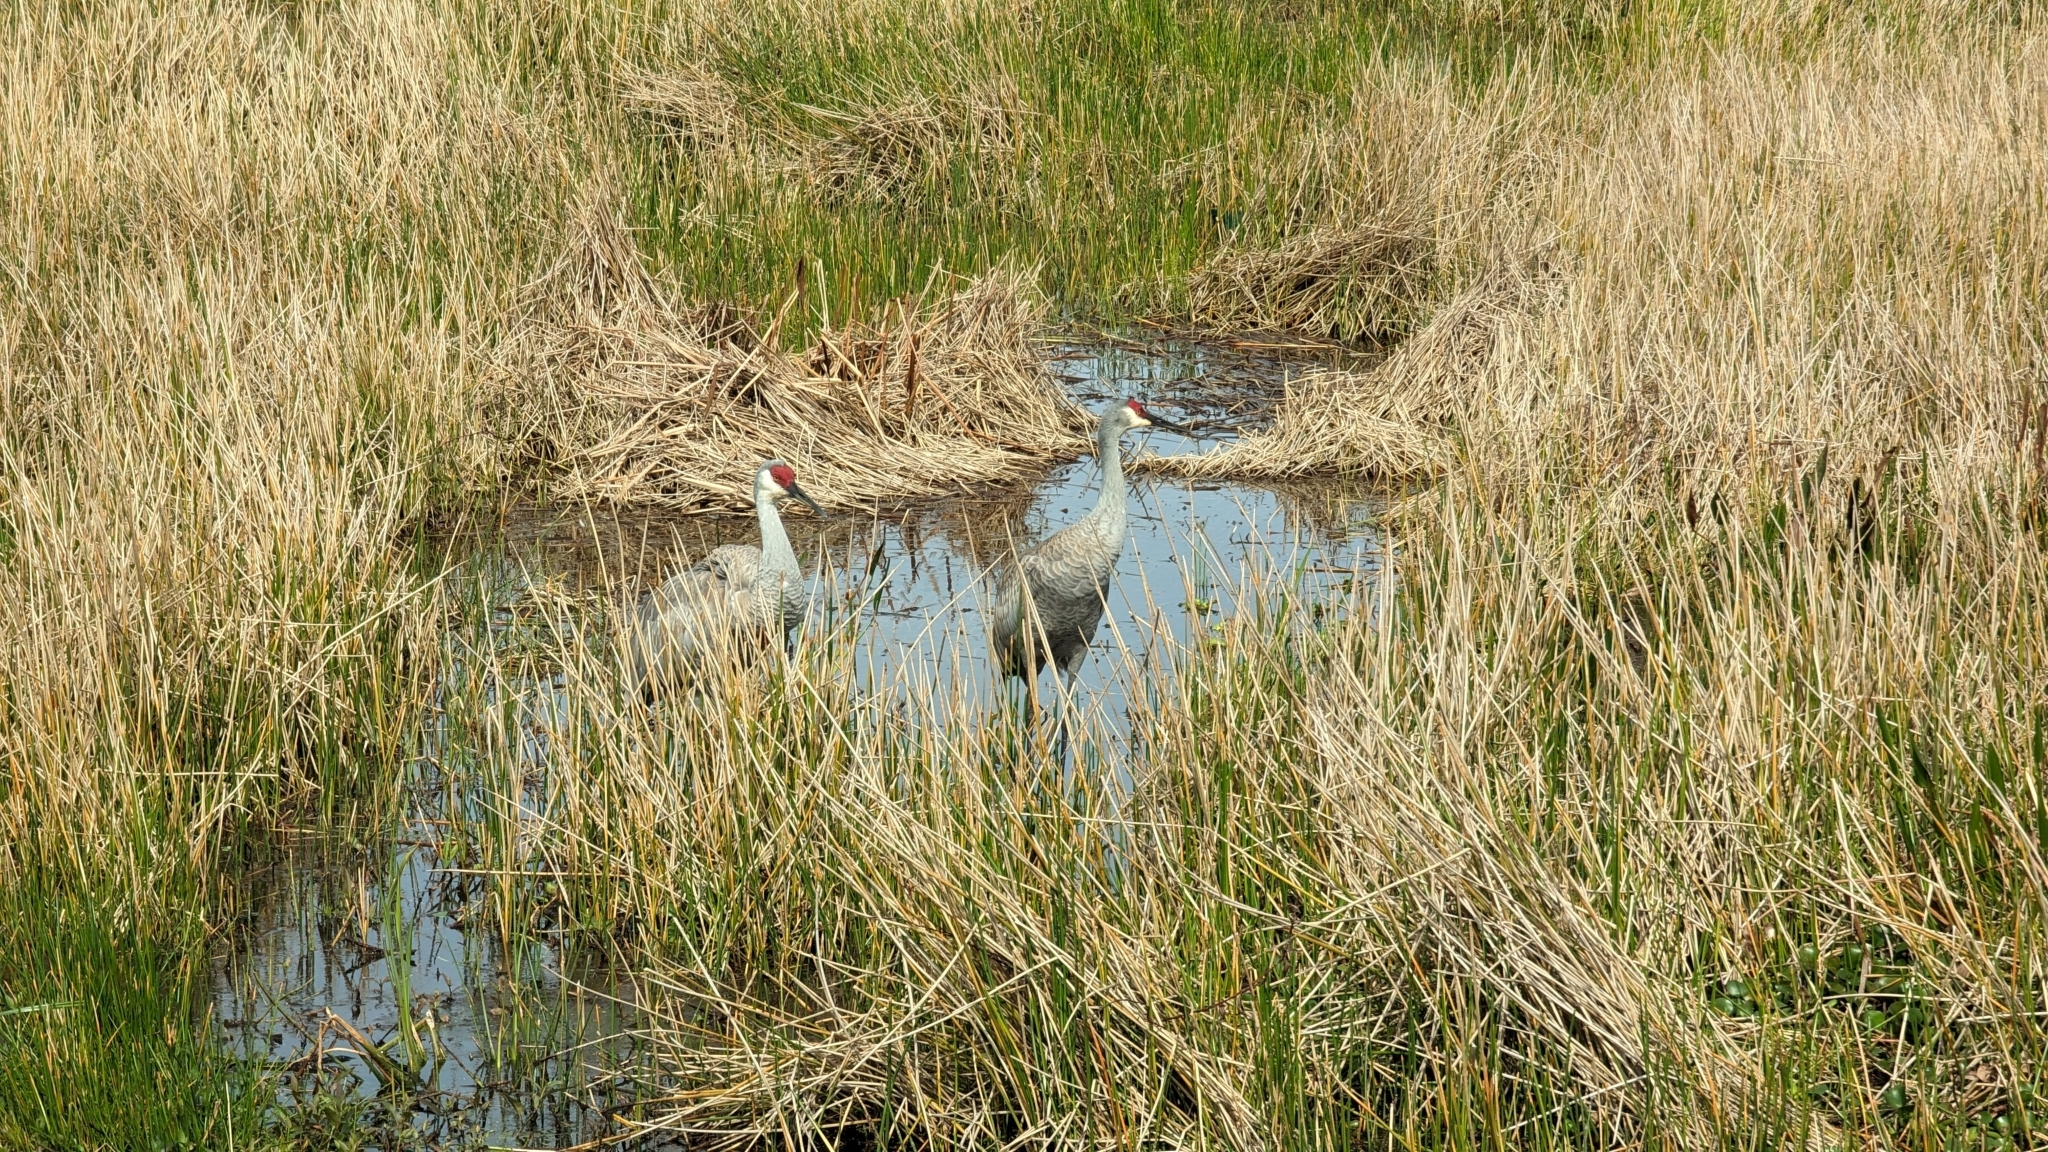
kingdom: Animalia
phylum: Chordata
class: Aves
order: Gruiformes
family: Gruidae
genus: Grus
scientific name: Grus canadensis
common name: Sandhill crane
